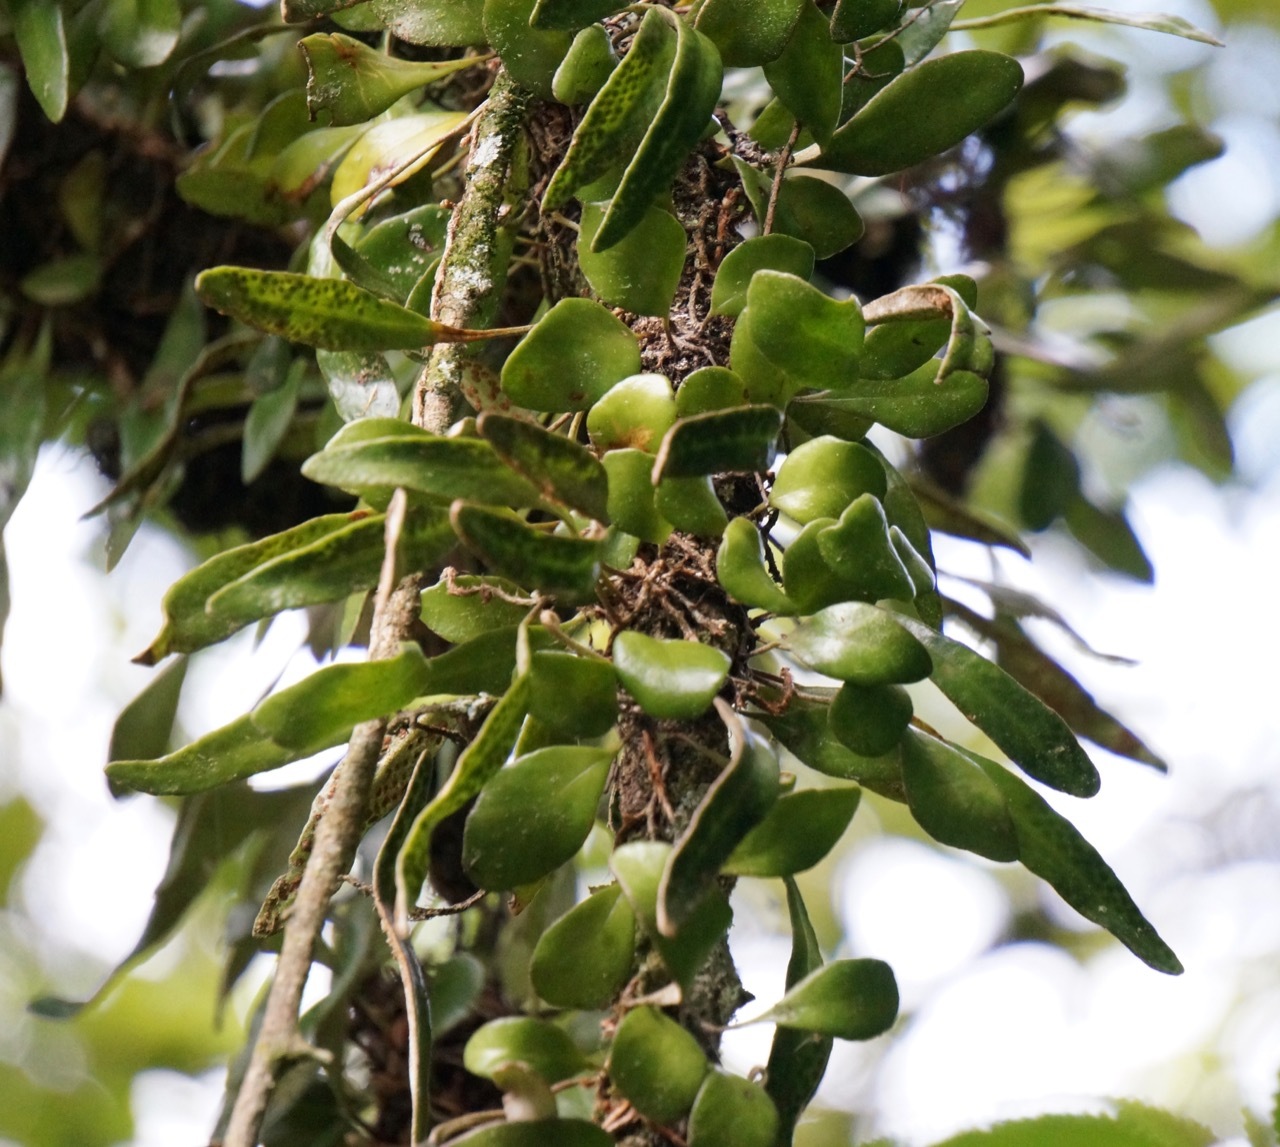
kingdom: Plantae
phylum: Tracheophyta
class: Polypodiopsida
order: Polypodiales
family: Polypodiaceae
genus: Pyrrosia
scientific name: Pyrrosia eleagnifolia
